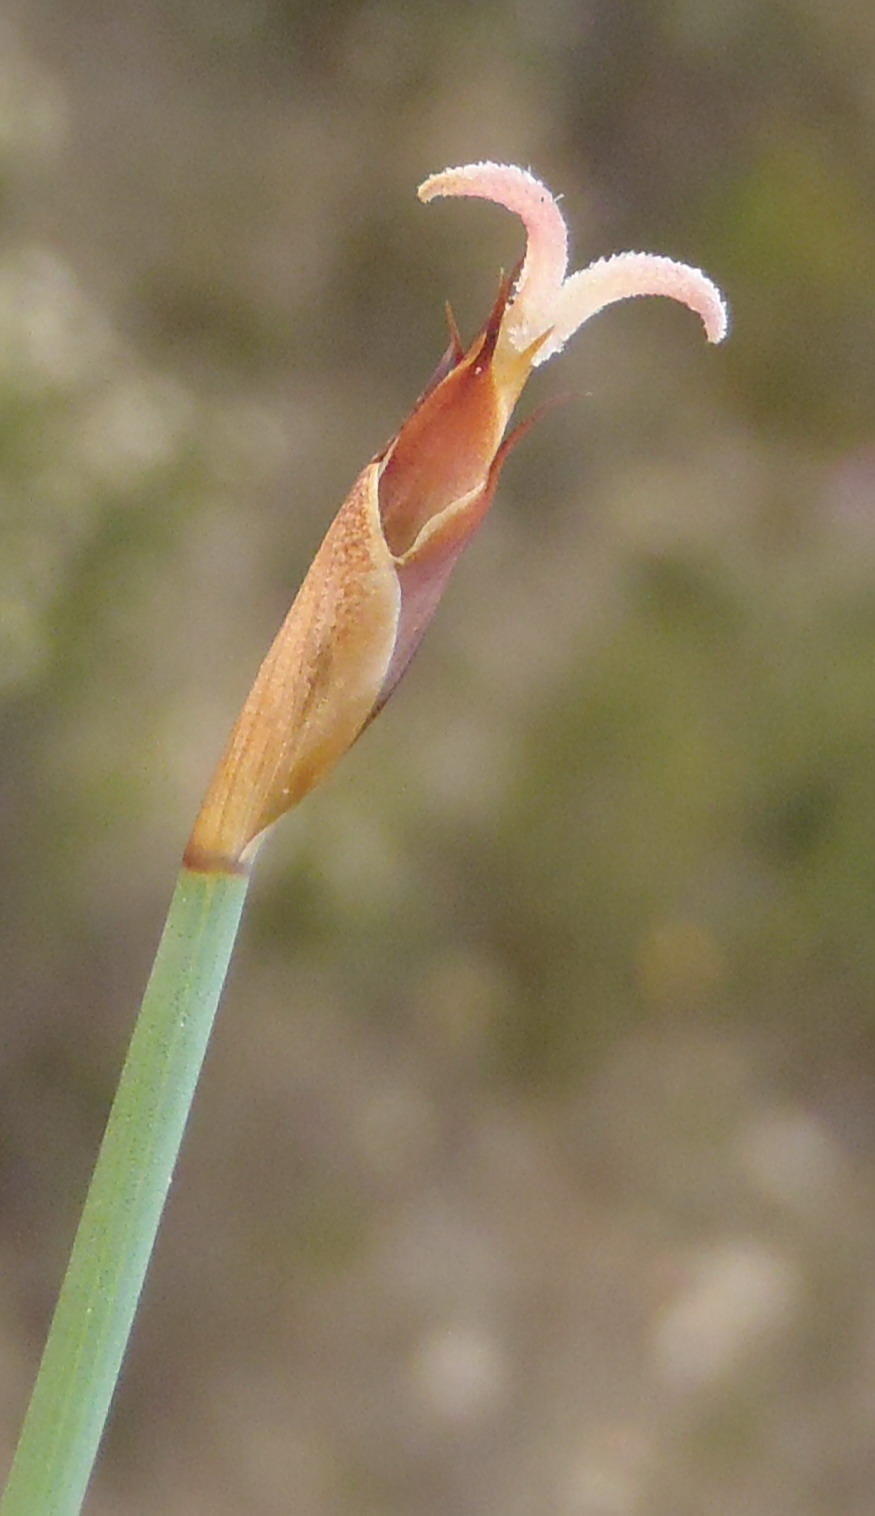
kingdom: Plantae
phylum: Tracheophyta
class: Liliopsida
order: Poales
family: Restionaceae
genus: Hypodiscus
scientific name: Hypodiscus procurrens
